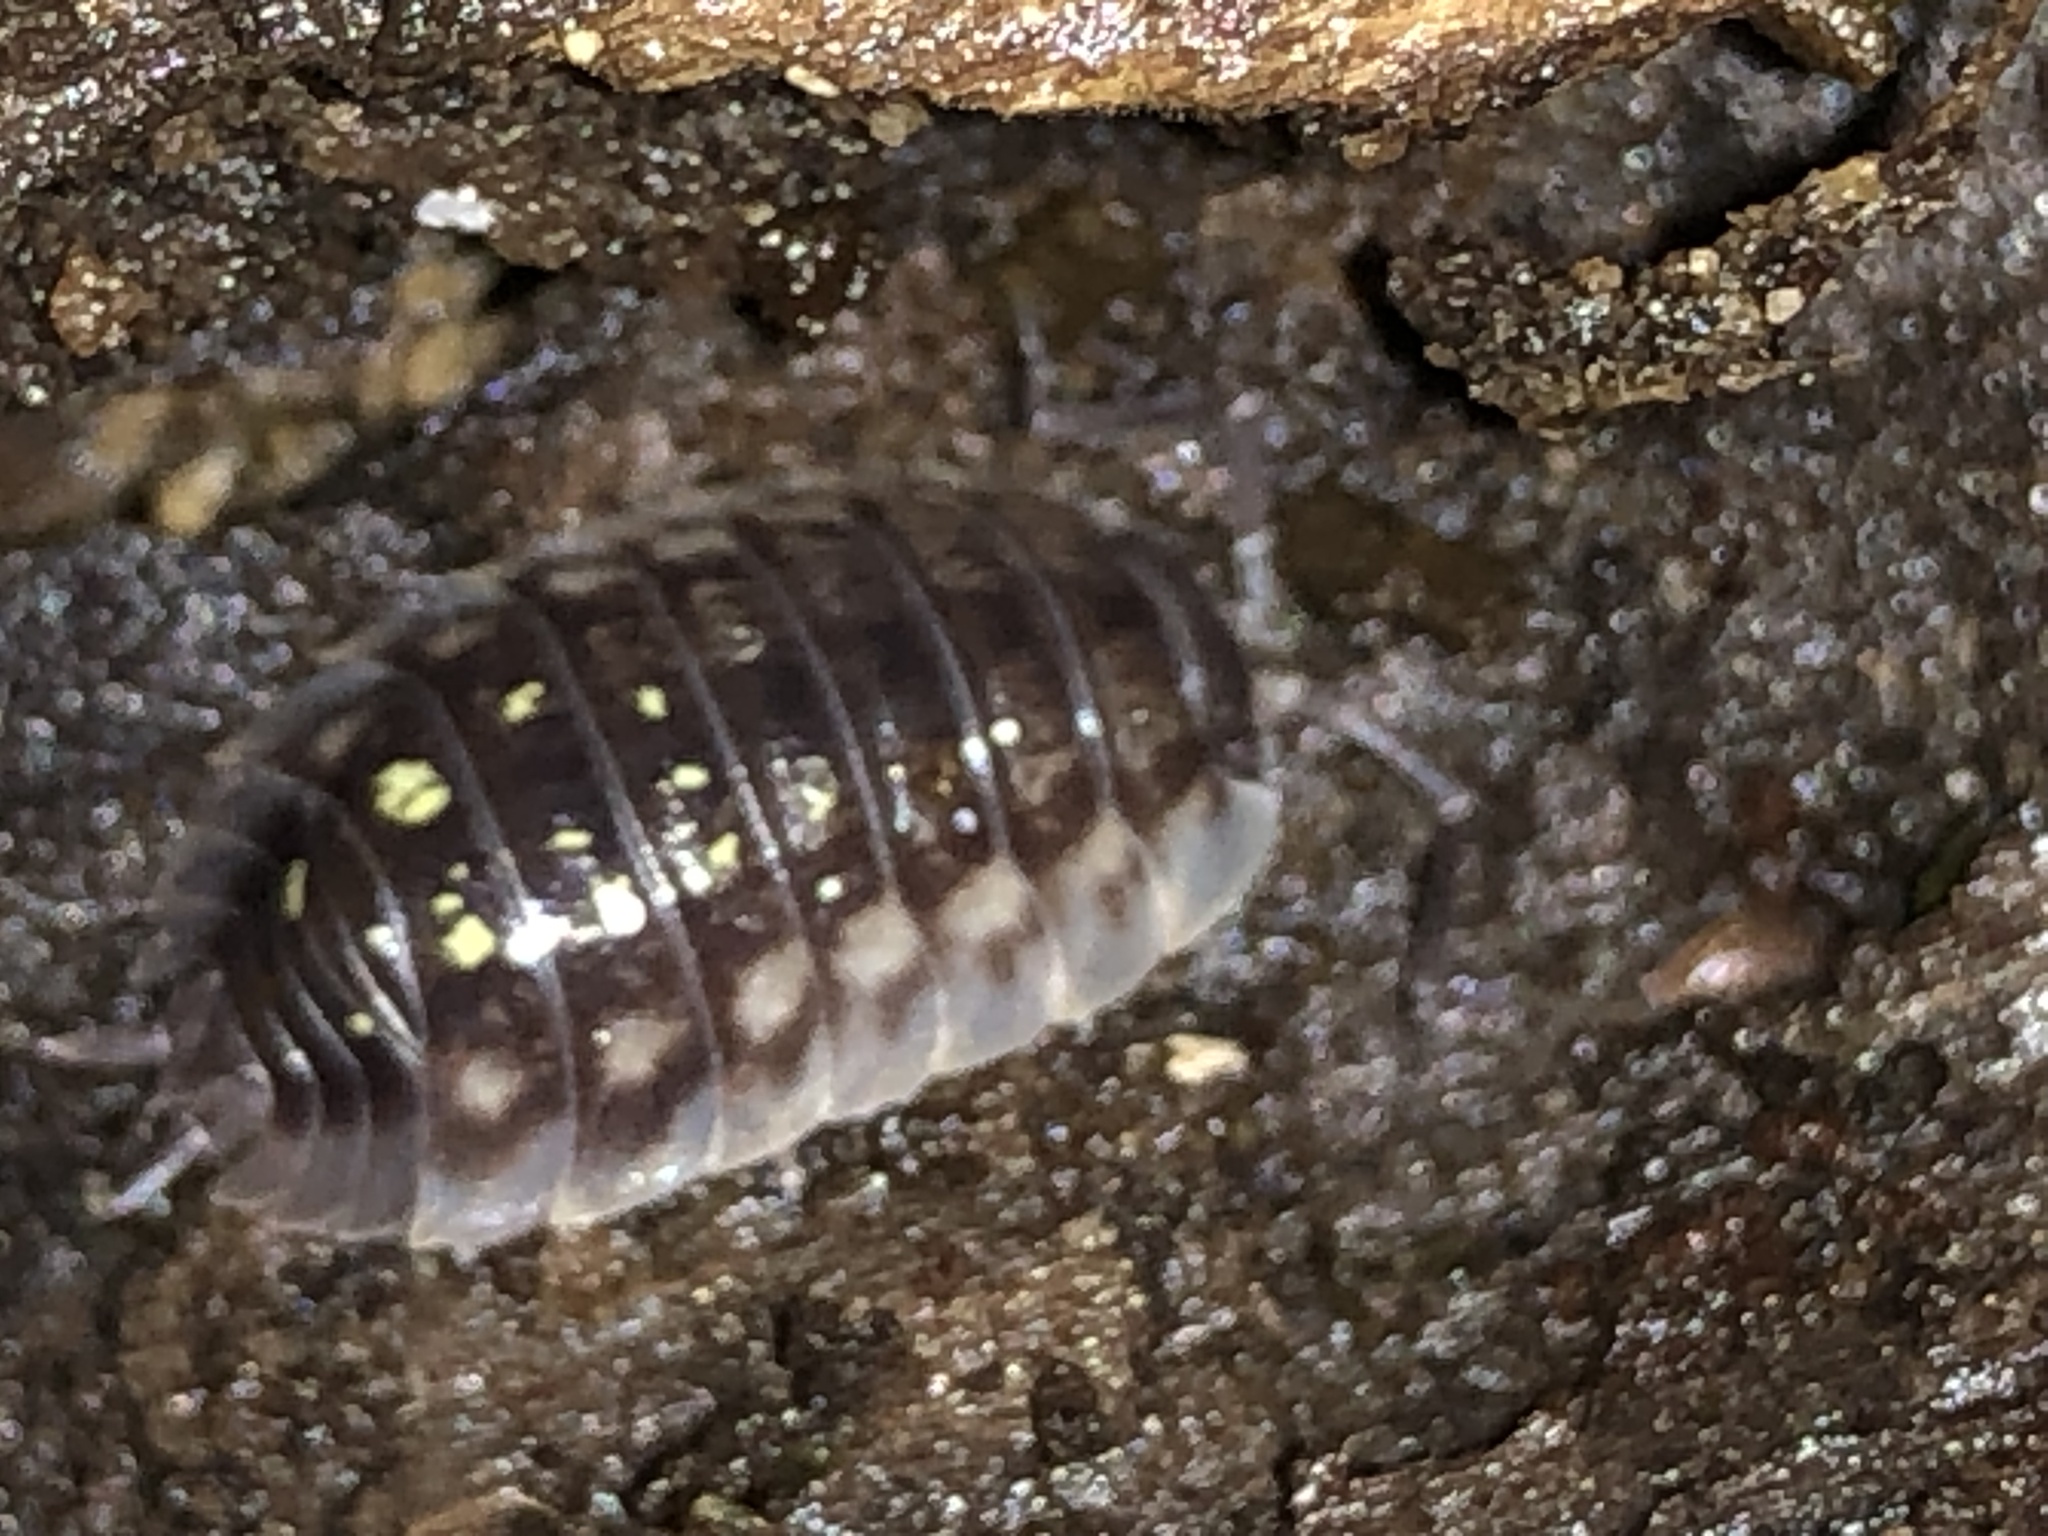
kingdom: Animalia
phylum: Arthropoda
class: Malacostraca
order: Isopoda
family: Oniscidae
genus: Oniscus
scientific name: Oniscus asellus
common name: Common shiny woodlouse
